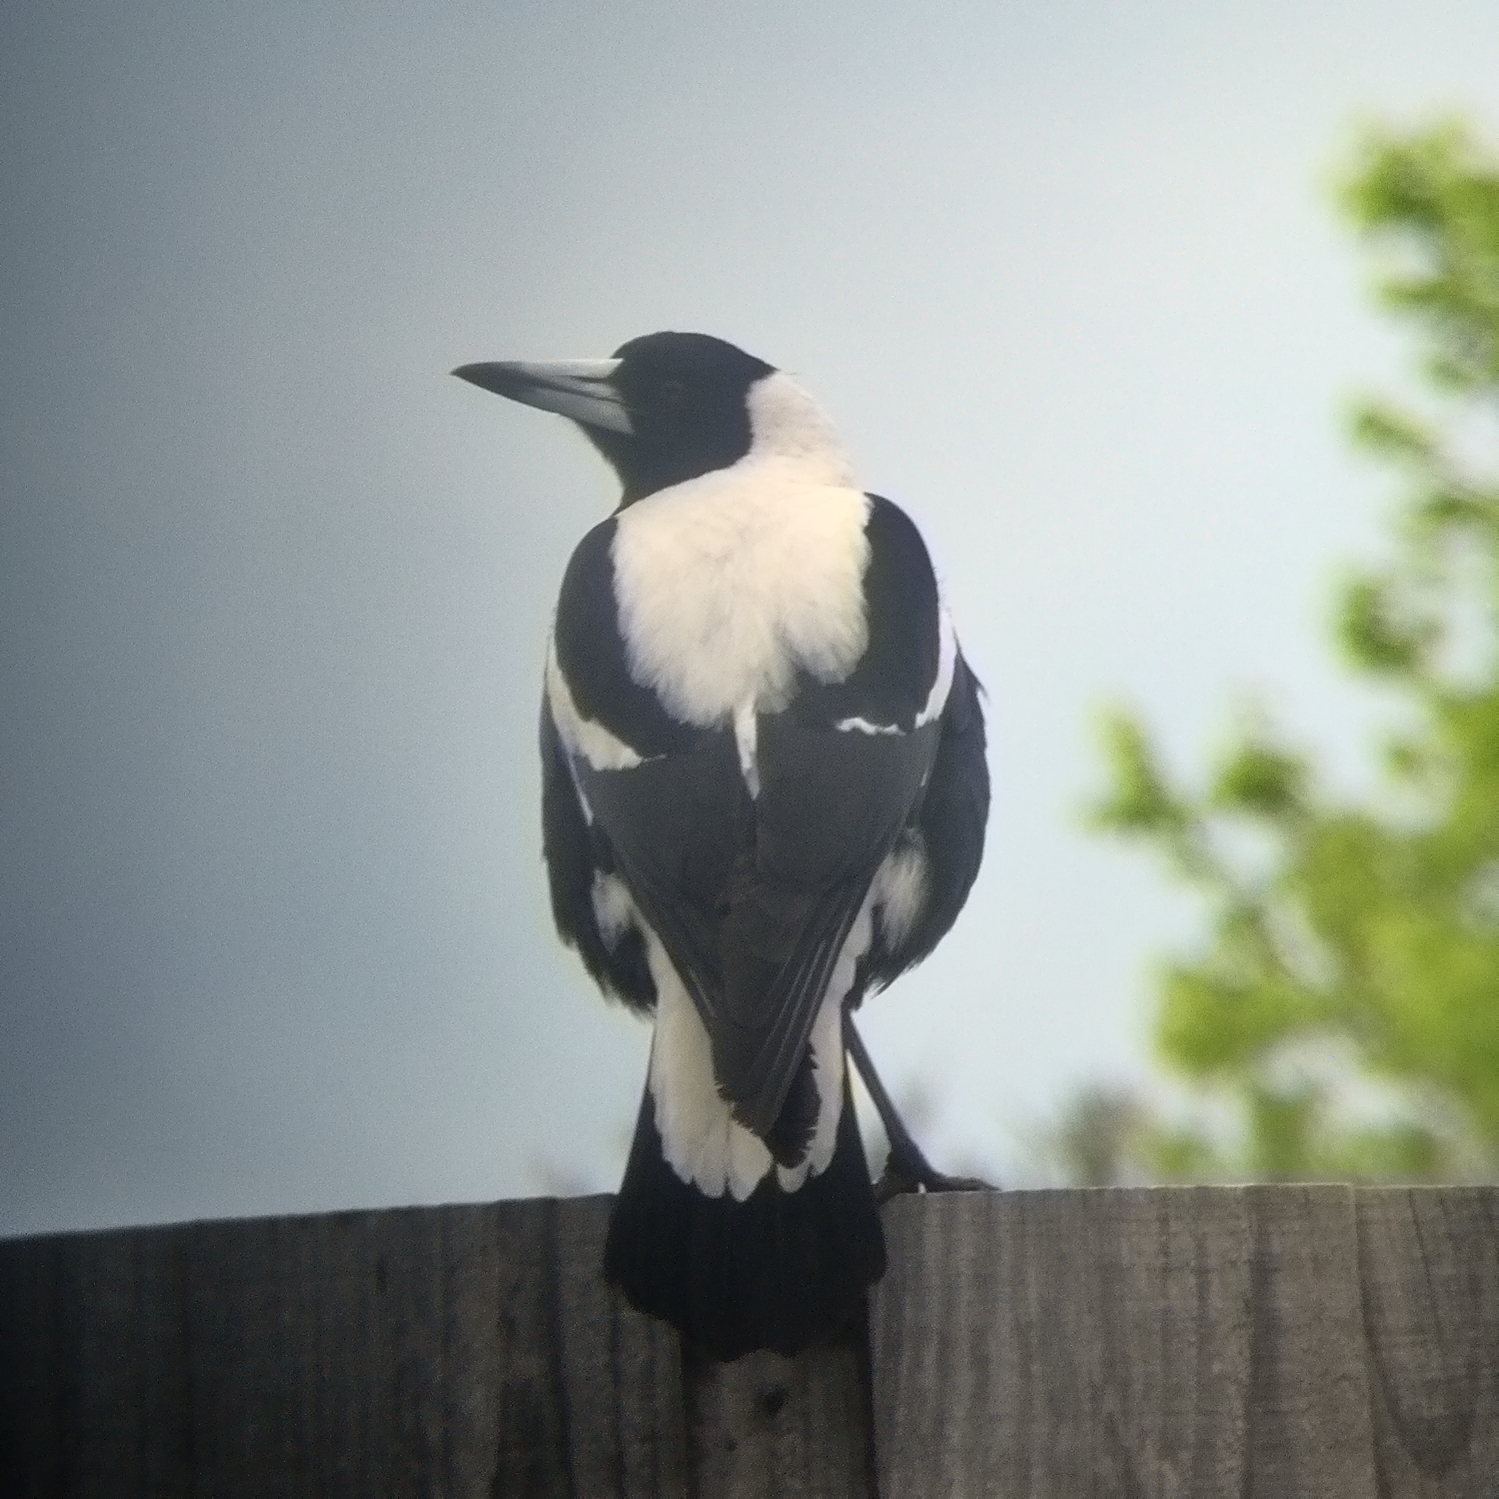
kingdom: Animalia
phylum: Chordata
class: Aves
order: Passeriformes
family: Cracticidae
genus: Gymnorhina
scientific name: Gymnorhina tibicen
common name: Australian magpie
